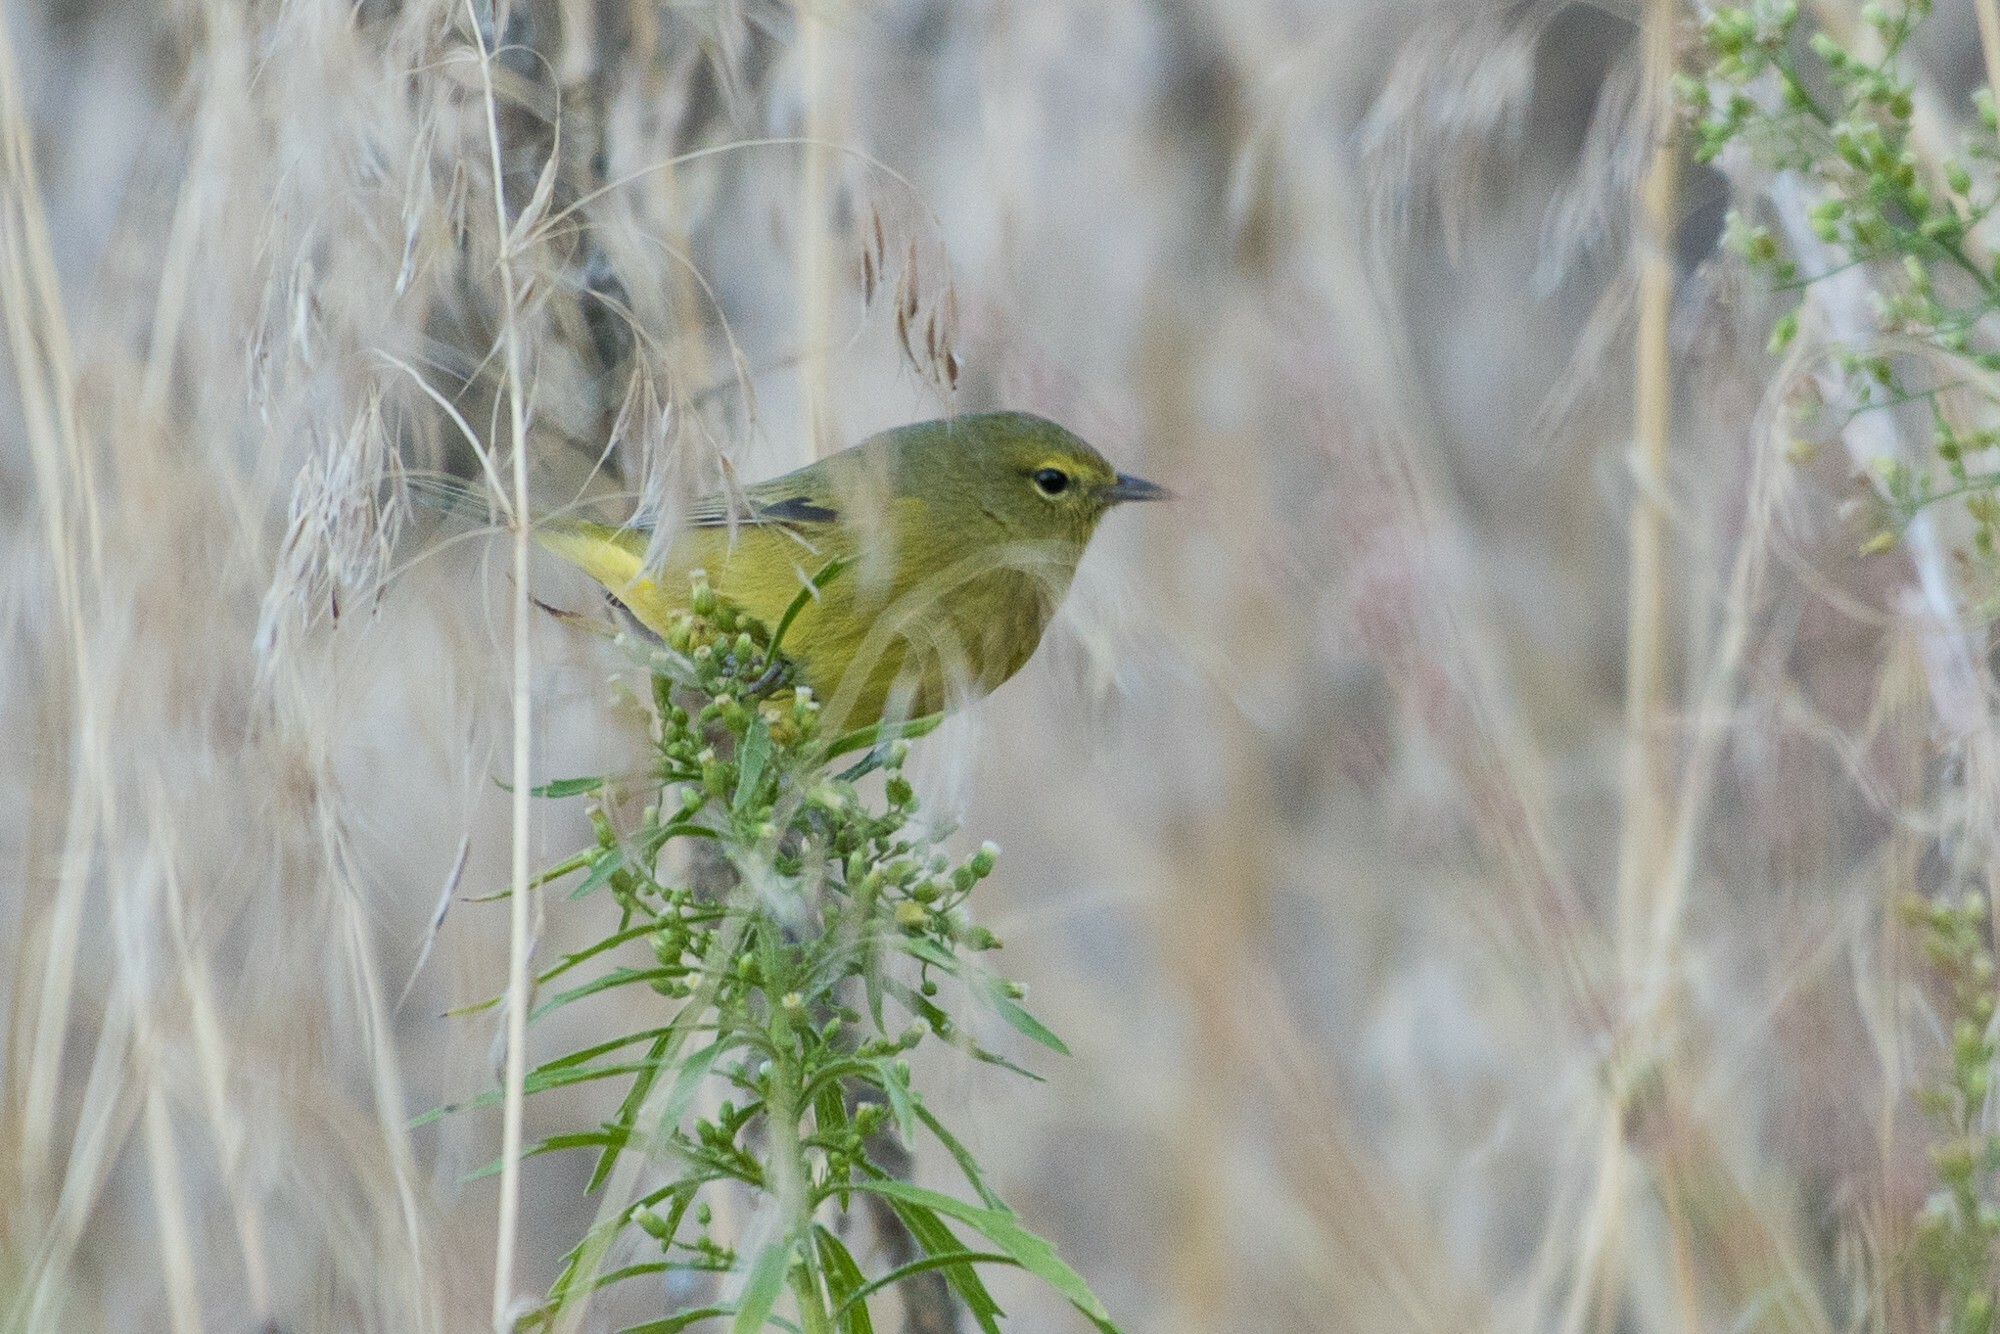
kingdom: Animalia
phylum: Chordata
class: Aves
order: Passeriformes
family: Parulidae
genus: Leiothlypis
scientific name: Leiothlypis celata
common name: Orange-crowned warbler
